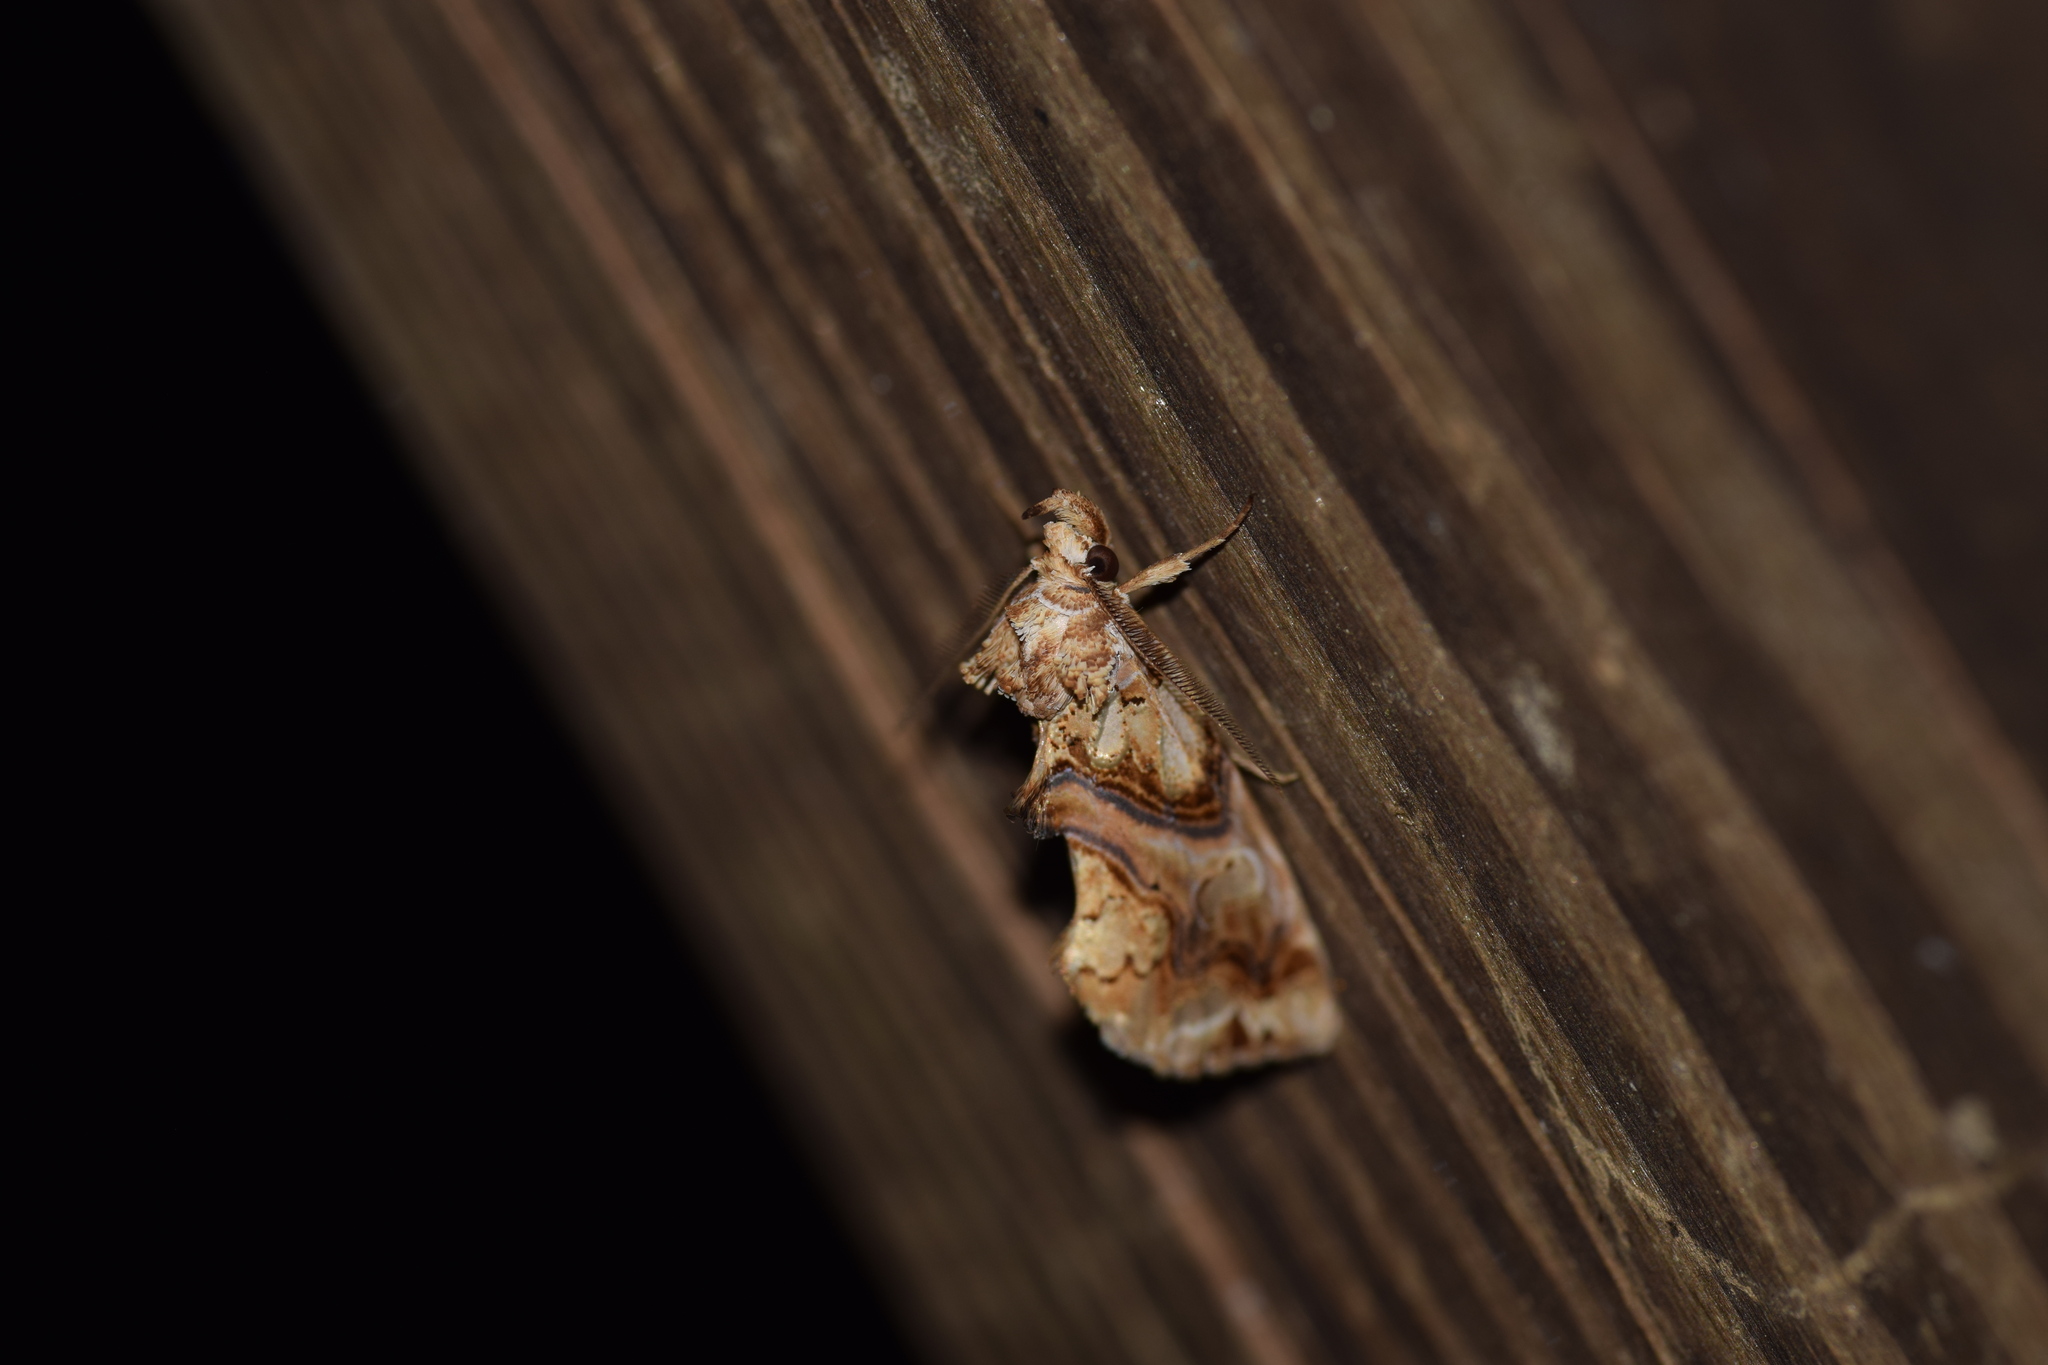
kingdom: Animalia
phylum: Arthropoda
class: Insecta
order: Lepidoptera
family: Erebidae
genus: Plusiodonta
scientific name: Plusiodonta compressipalpis
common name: Moonseed moth
